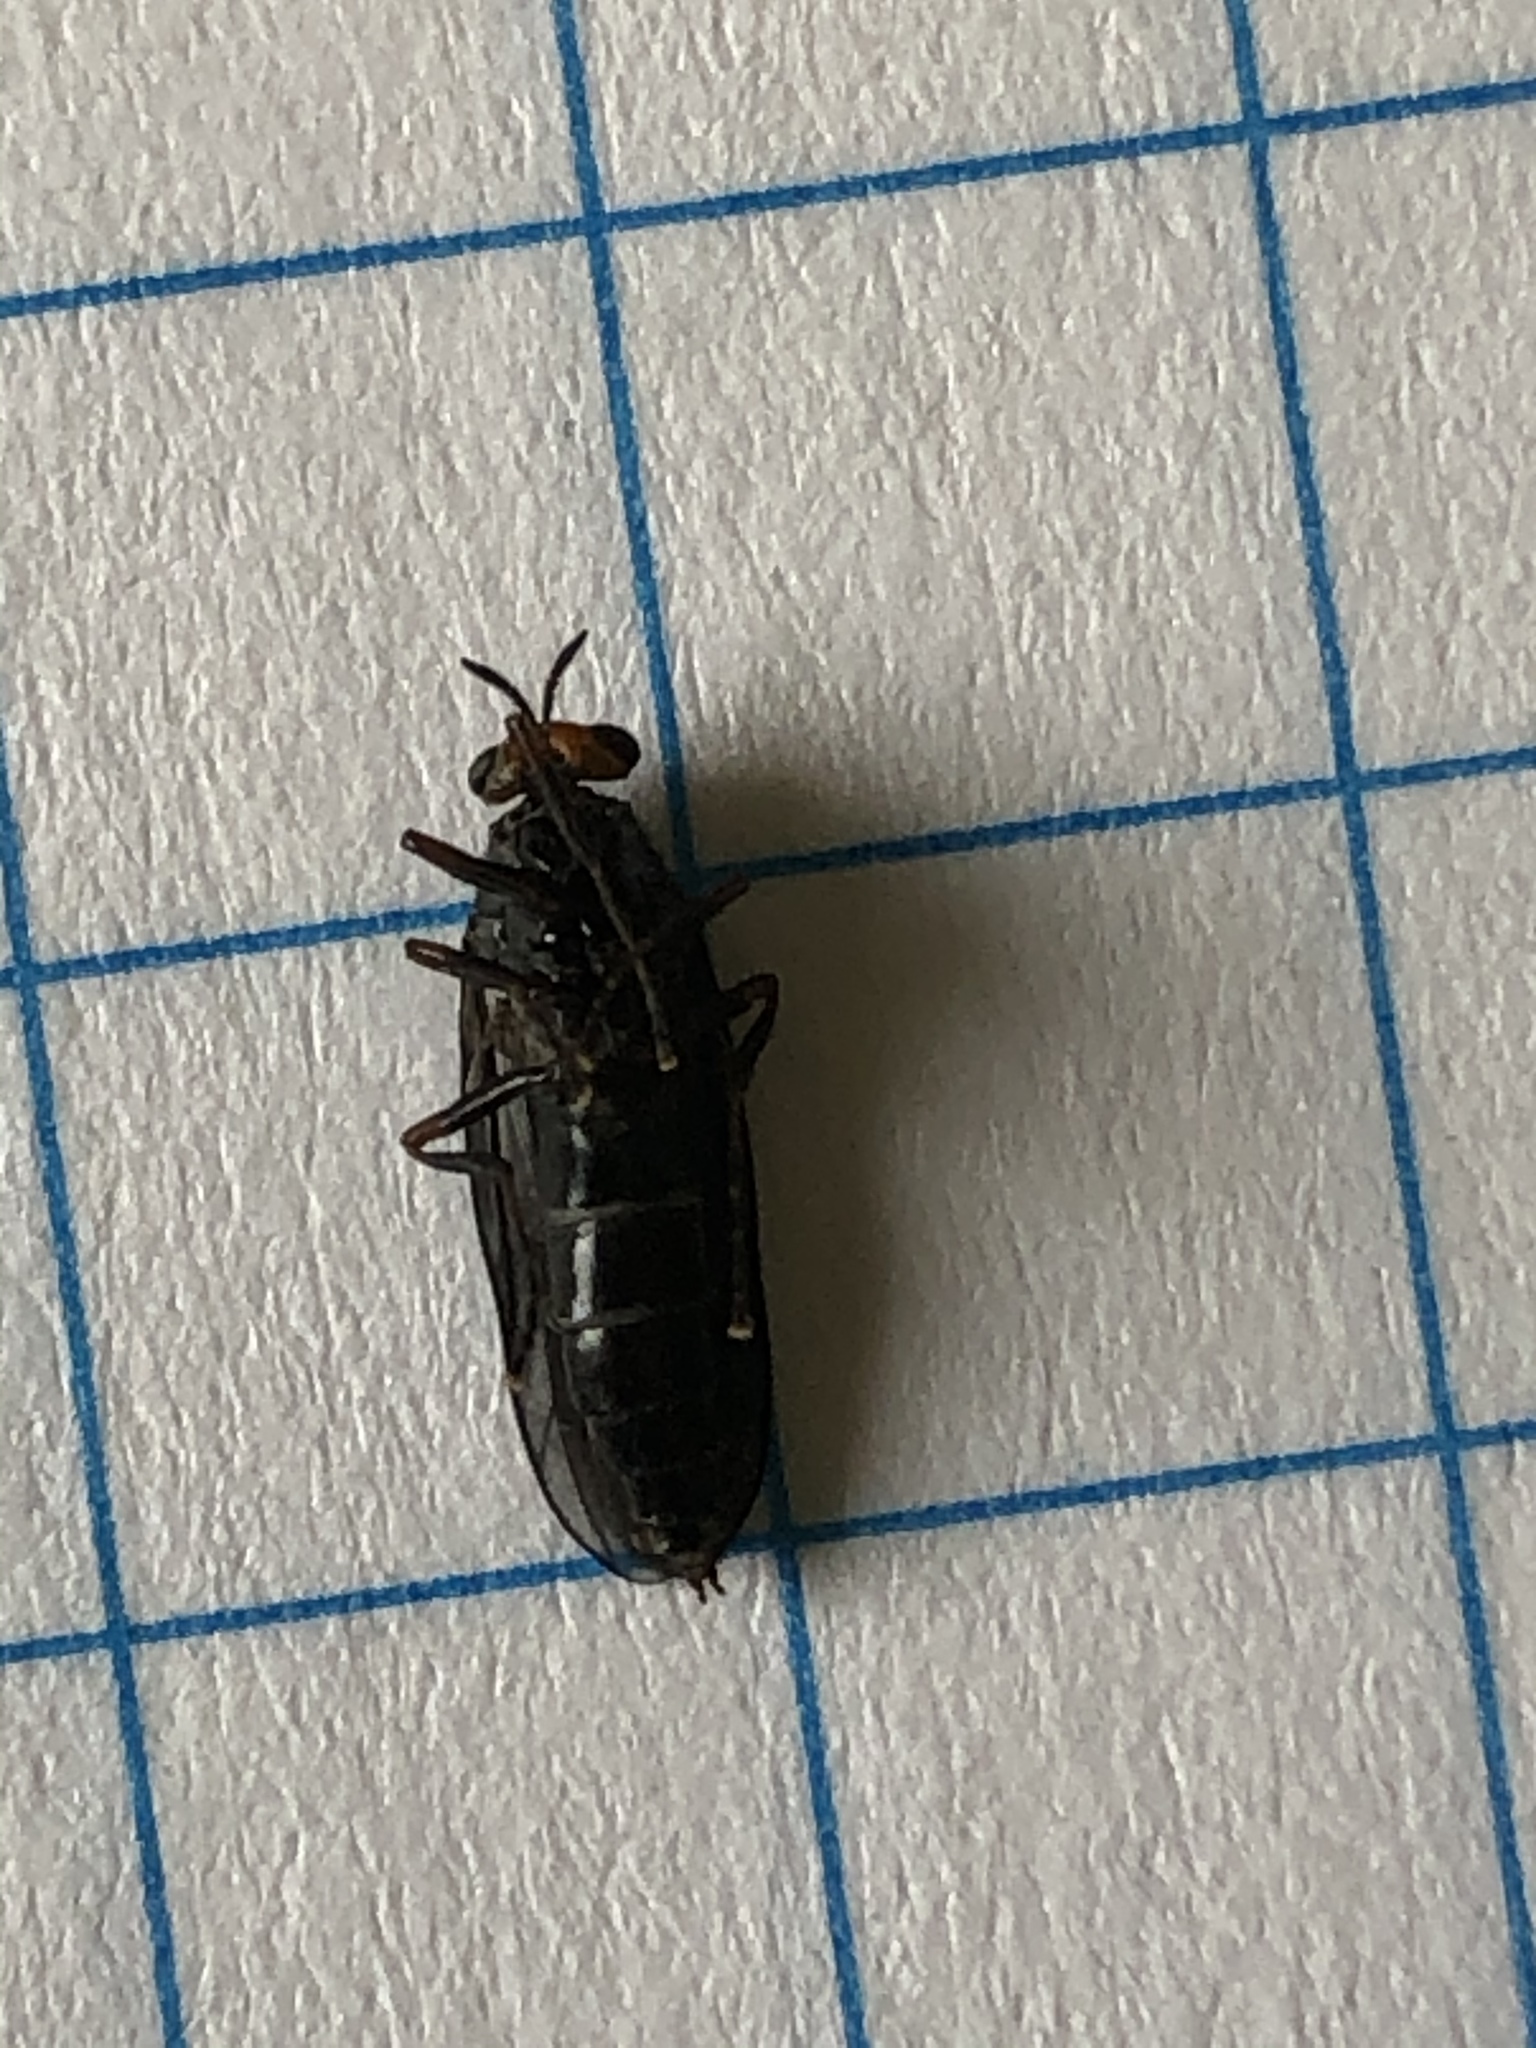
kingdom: Animalia
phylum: Arthropoda
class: Insecta
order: Diptera
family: Stratiomyidae
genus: Inopus
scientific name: Inopus rubriceps
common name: Soldier fly
